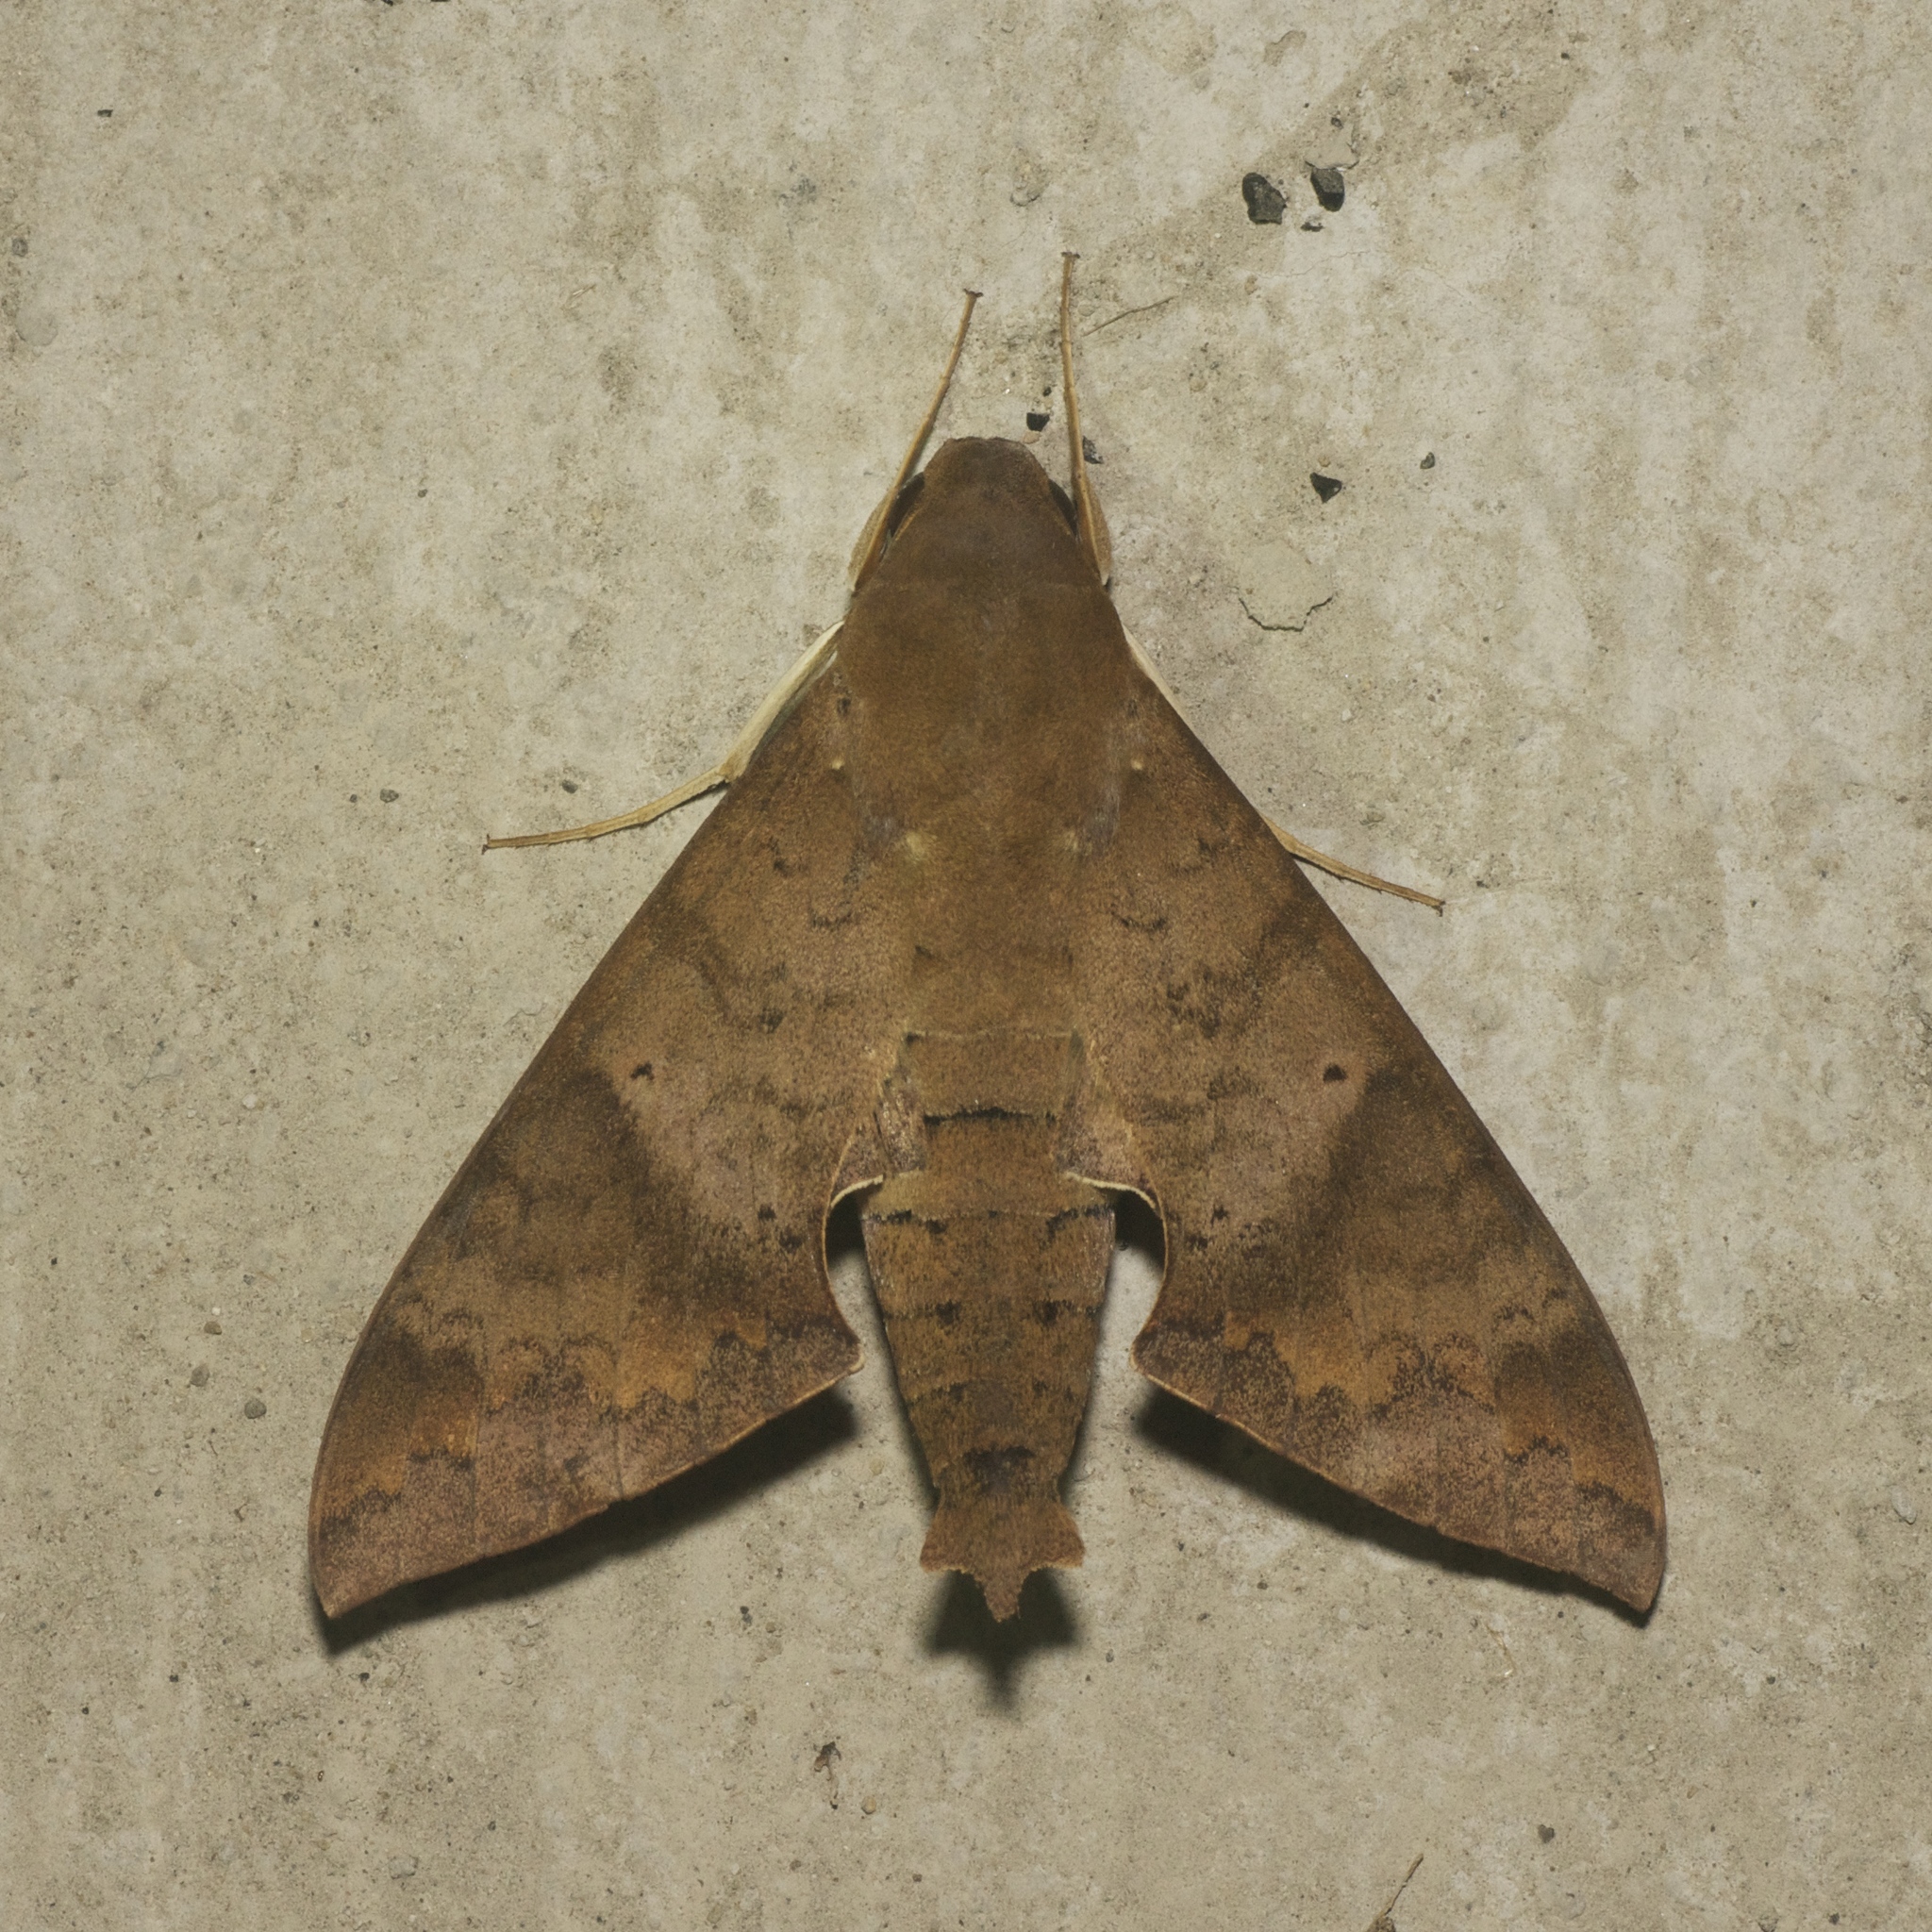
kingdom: Animalia
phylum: Arthropoda
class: Insecta
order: Lepidoptera
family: Sphingidae
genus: Pachylioides
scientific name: Pachylioides resumens
